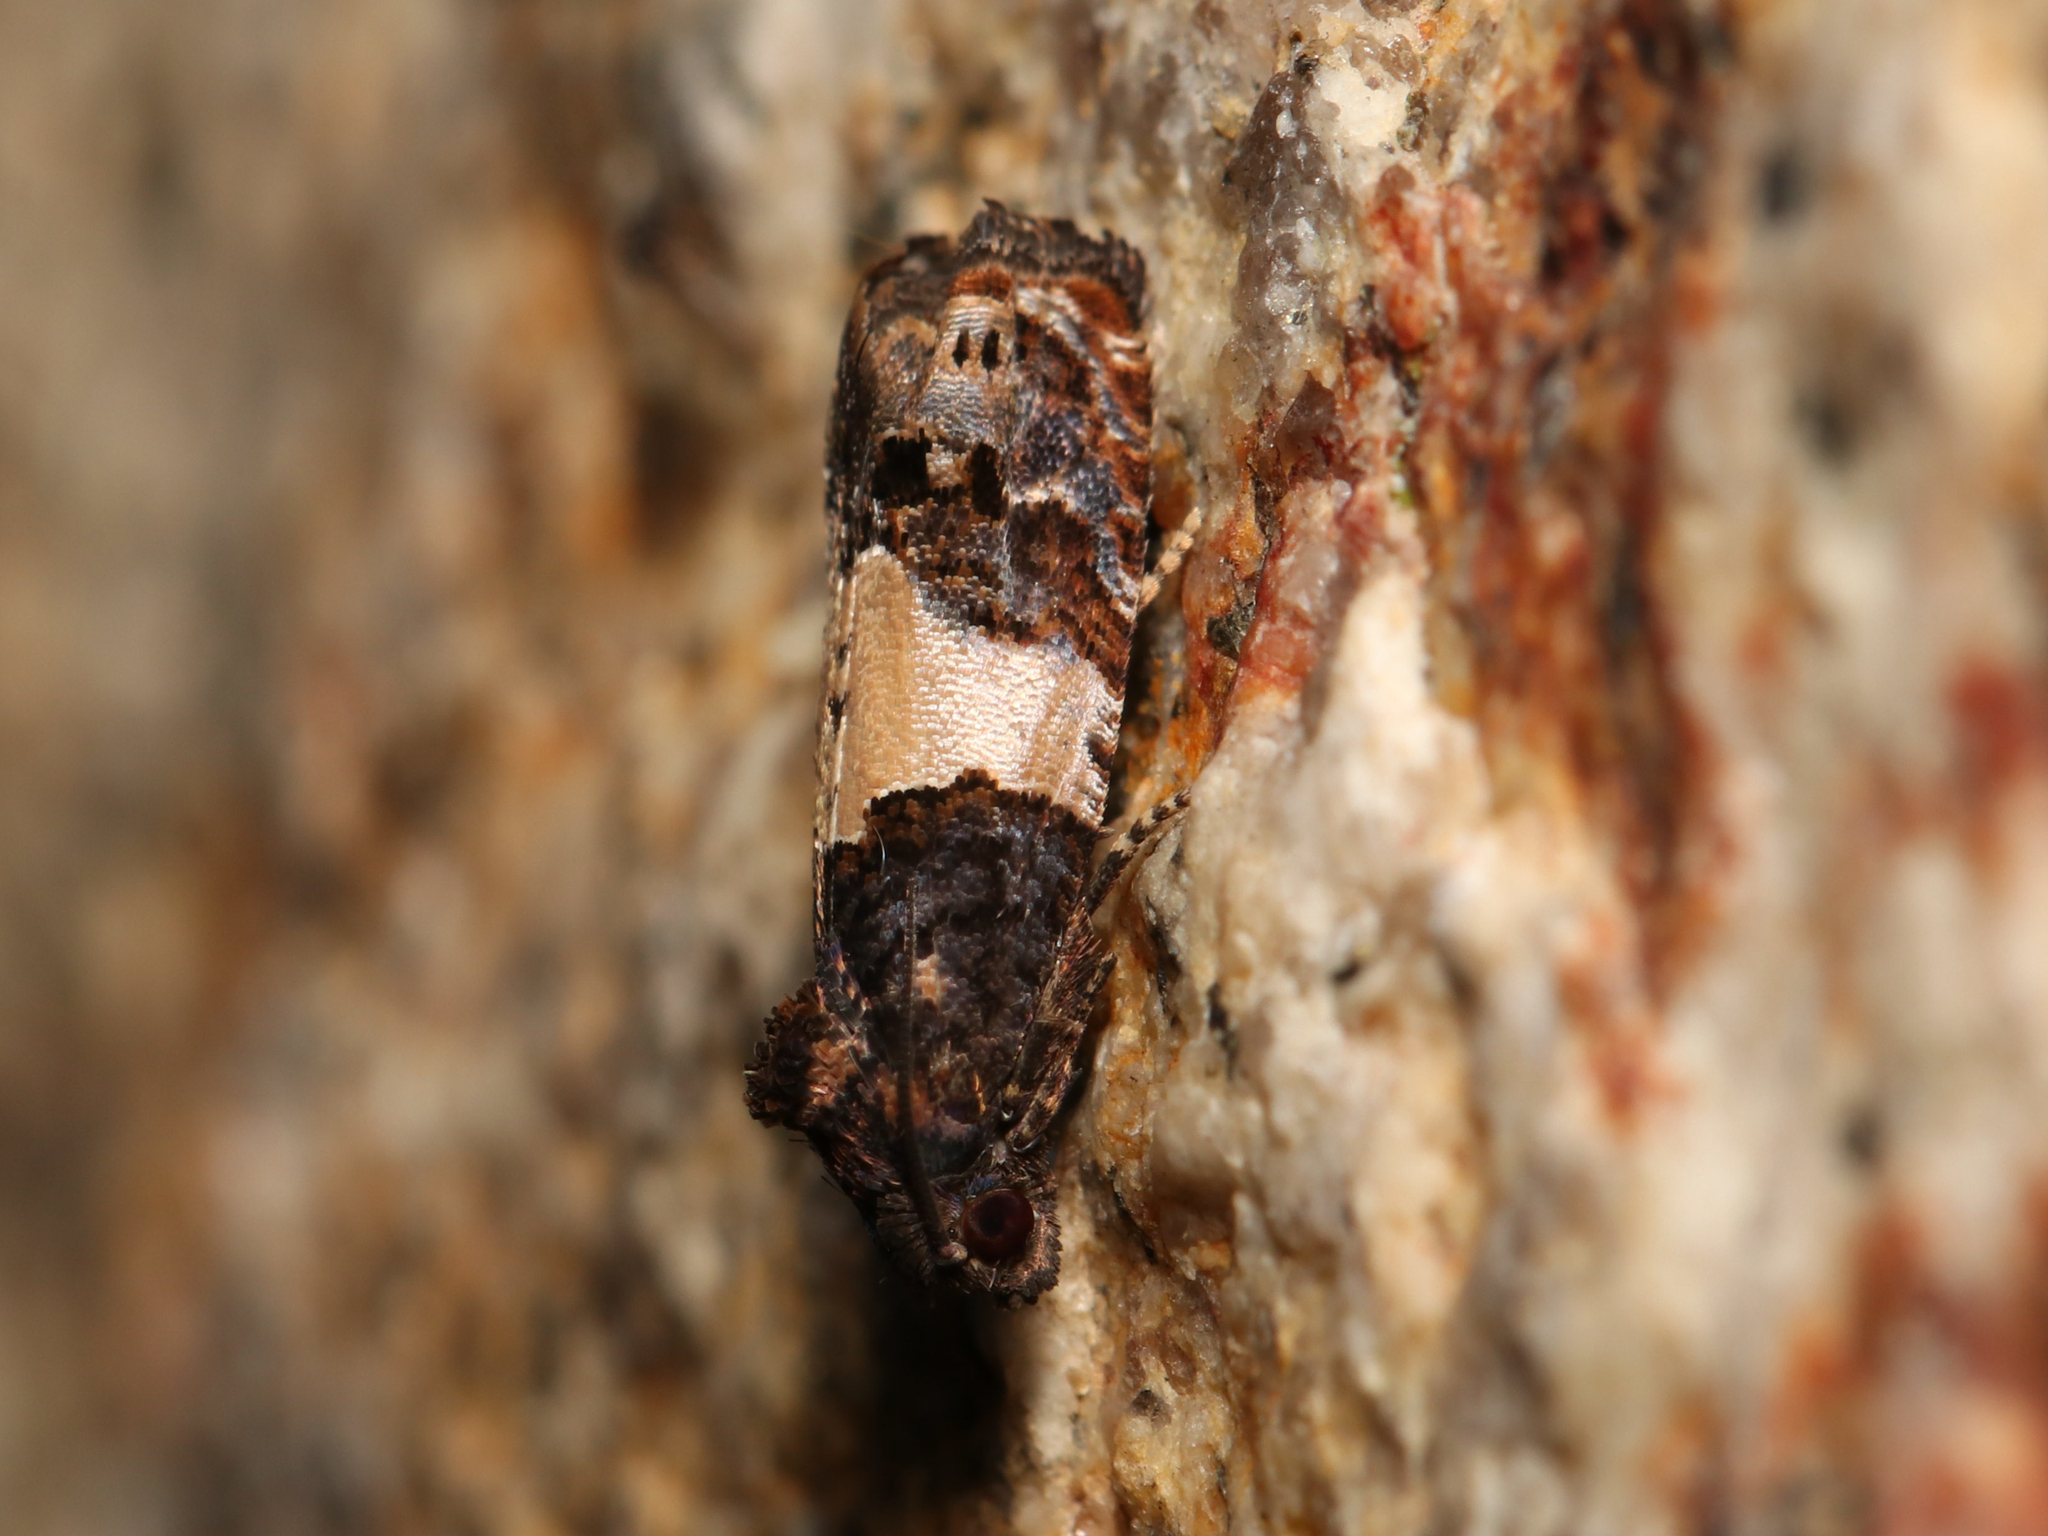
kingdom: Animalia
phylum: Arthropoda
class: Insecta
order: Lepidoptera
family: Tortricidae
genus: Epiblema
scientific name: Epiblema glenni
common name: Glenn's epiblema
